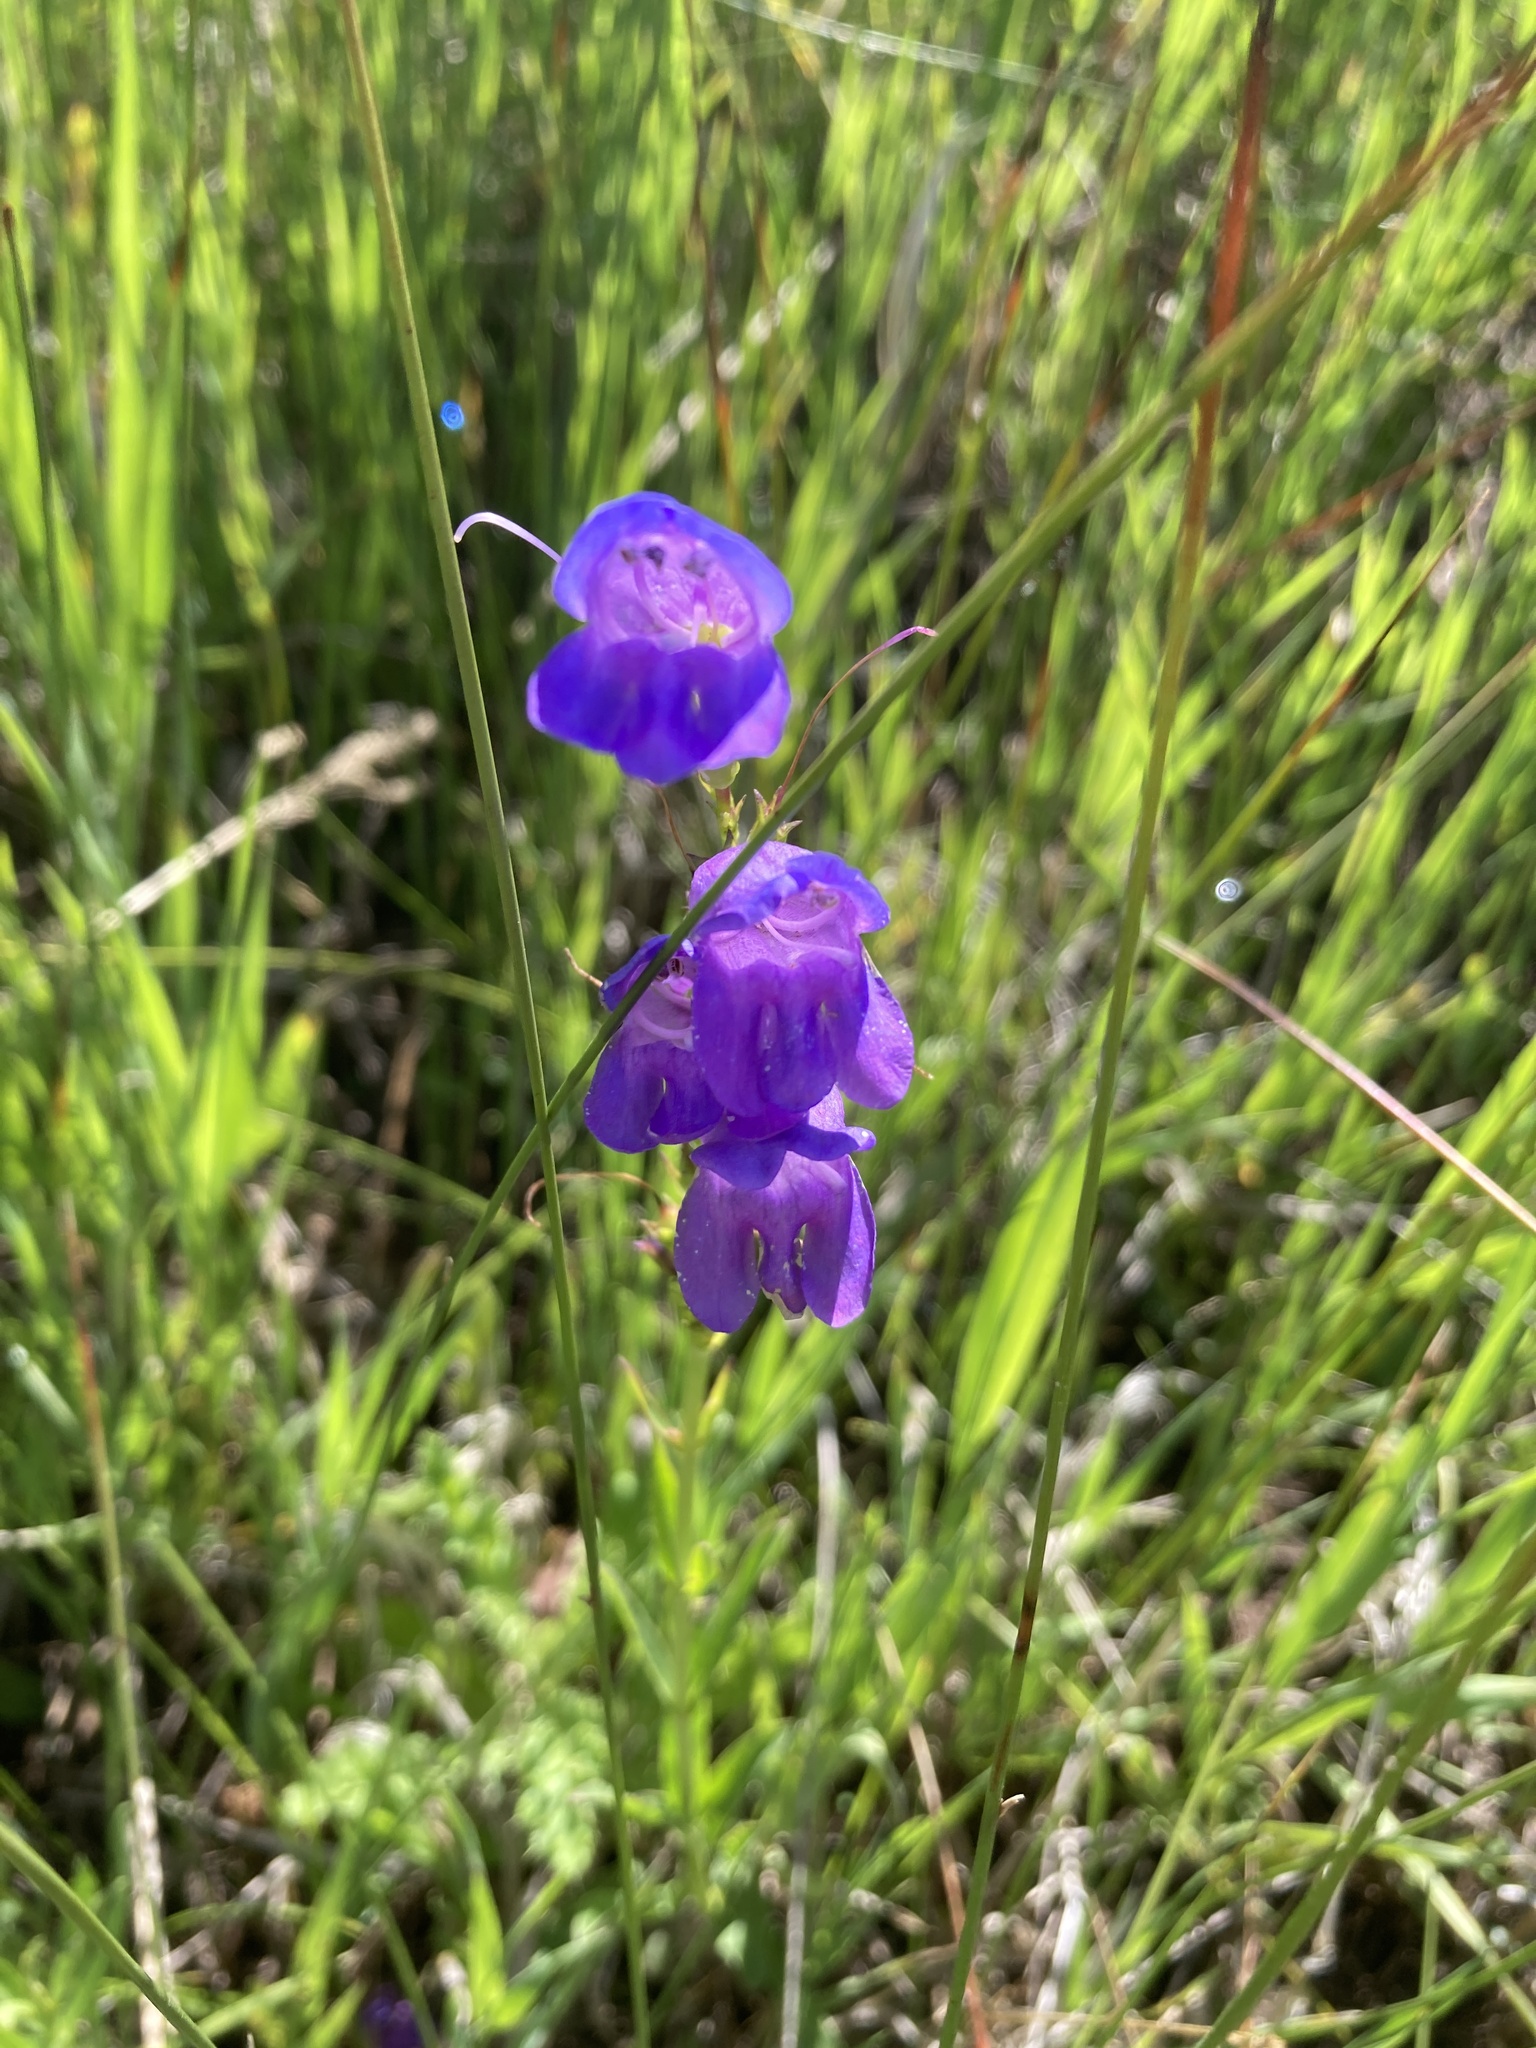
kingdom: Plantae
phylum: Tracheophyta
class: Magnoliopsida
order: Lamiales
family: Plantaginaceae
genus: Penstemon
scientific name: Penstemon strictus
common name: Rocky mountain penstemon
